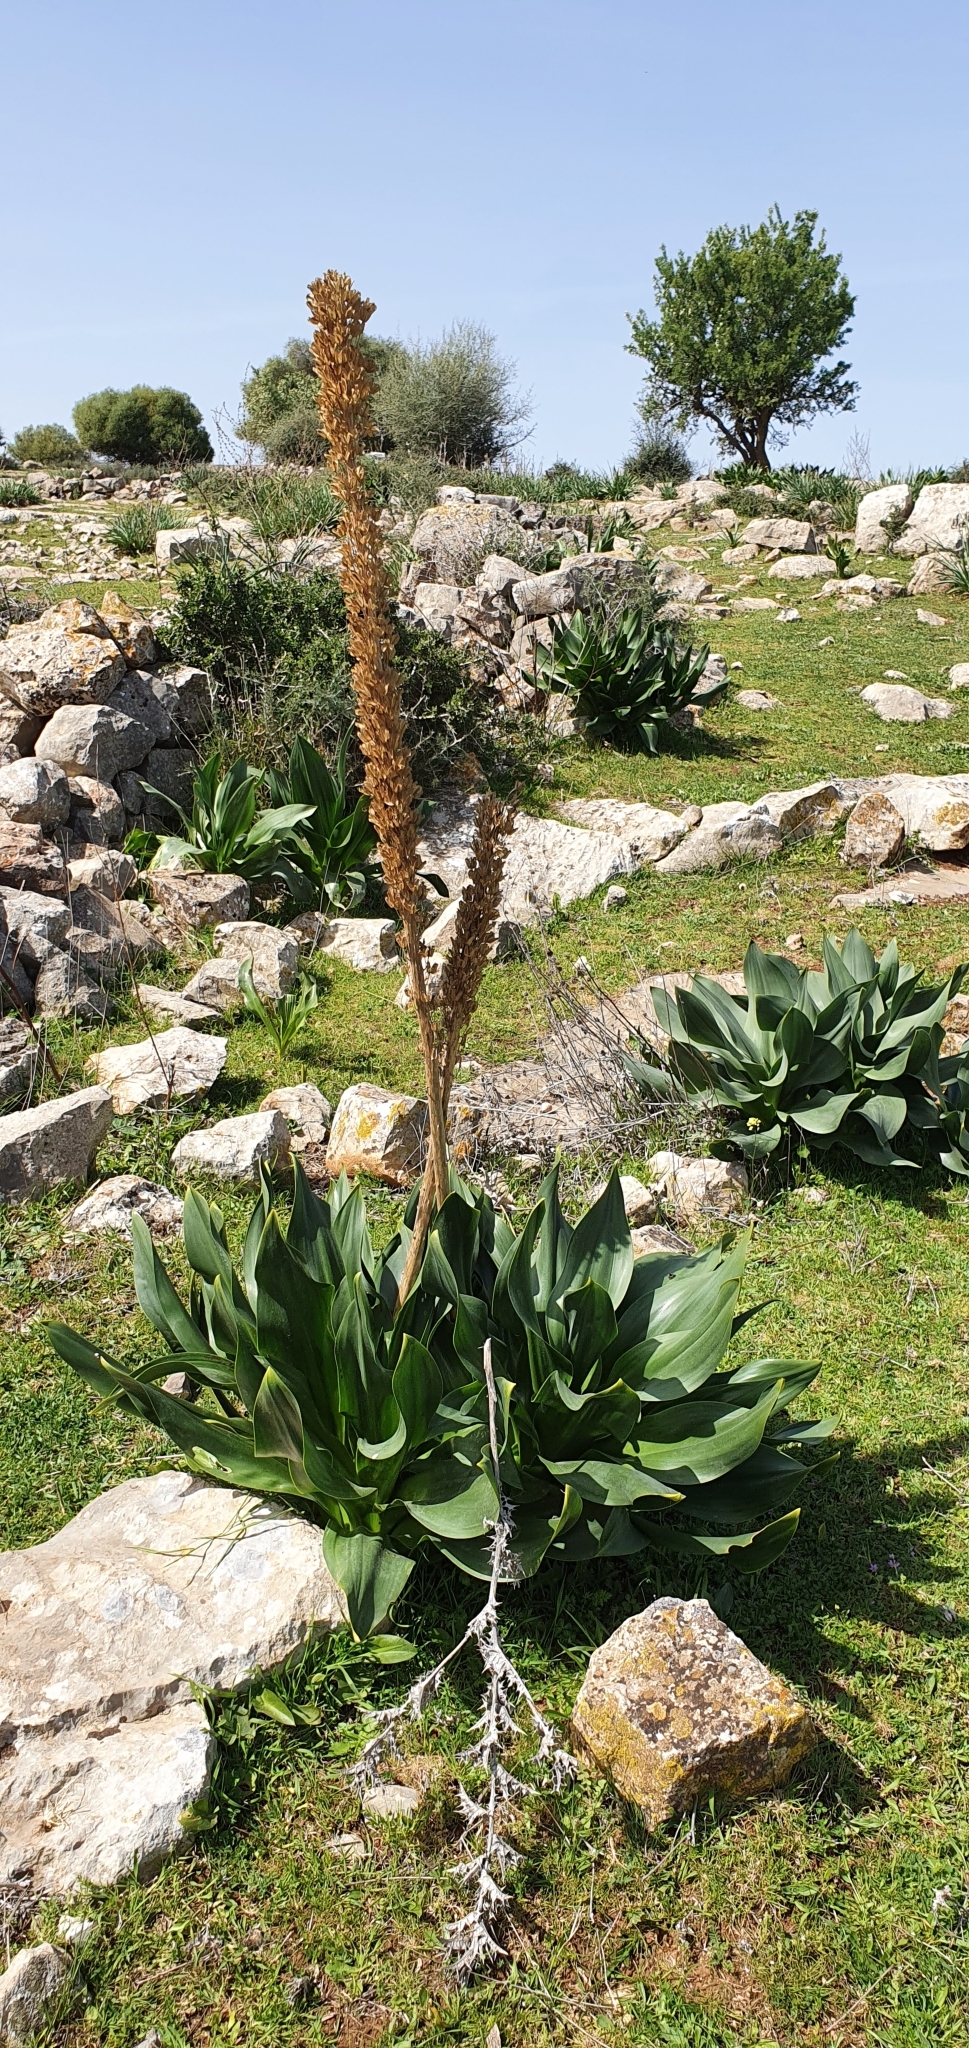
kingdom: Plantae
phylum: Tracheophyta
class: Liliopsida
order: Asparagales
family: Asparagaceae
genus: Drimia
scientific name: Drimia numidica
